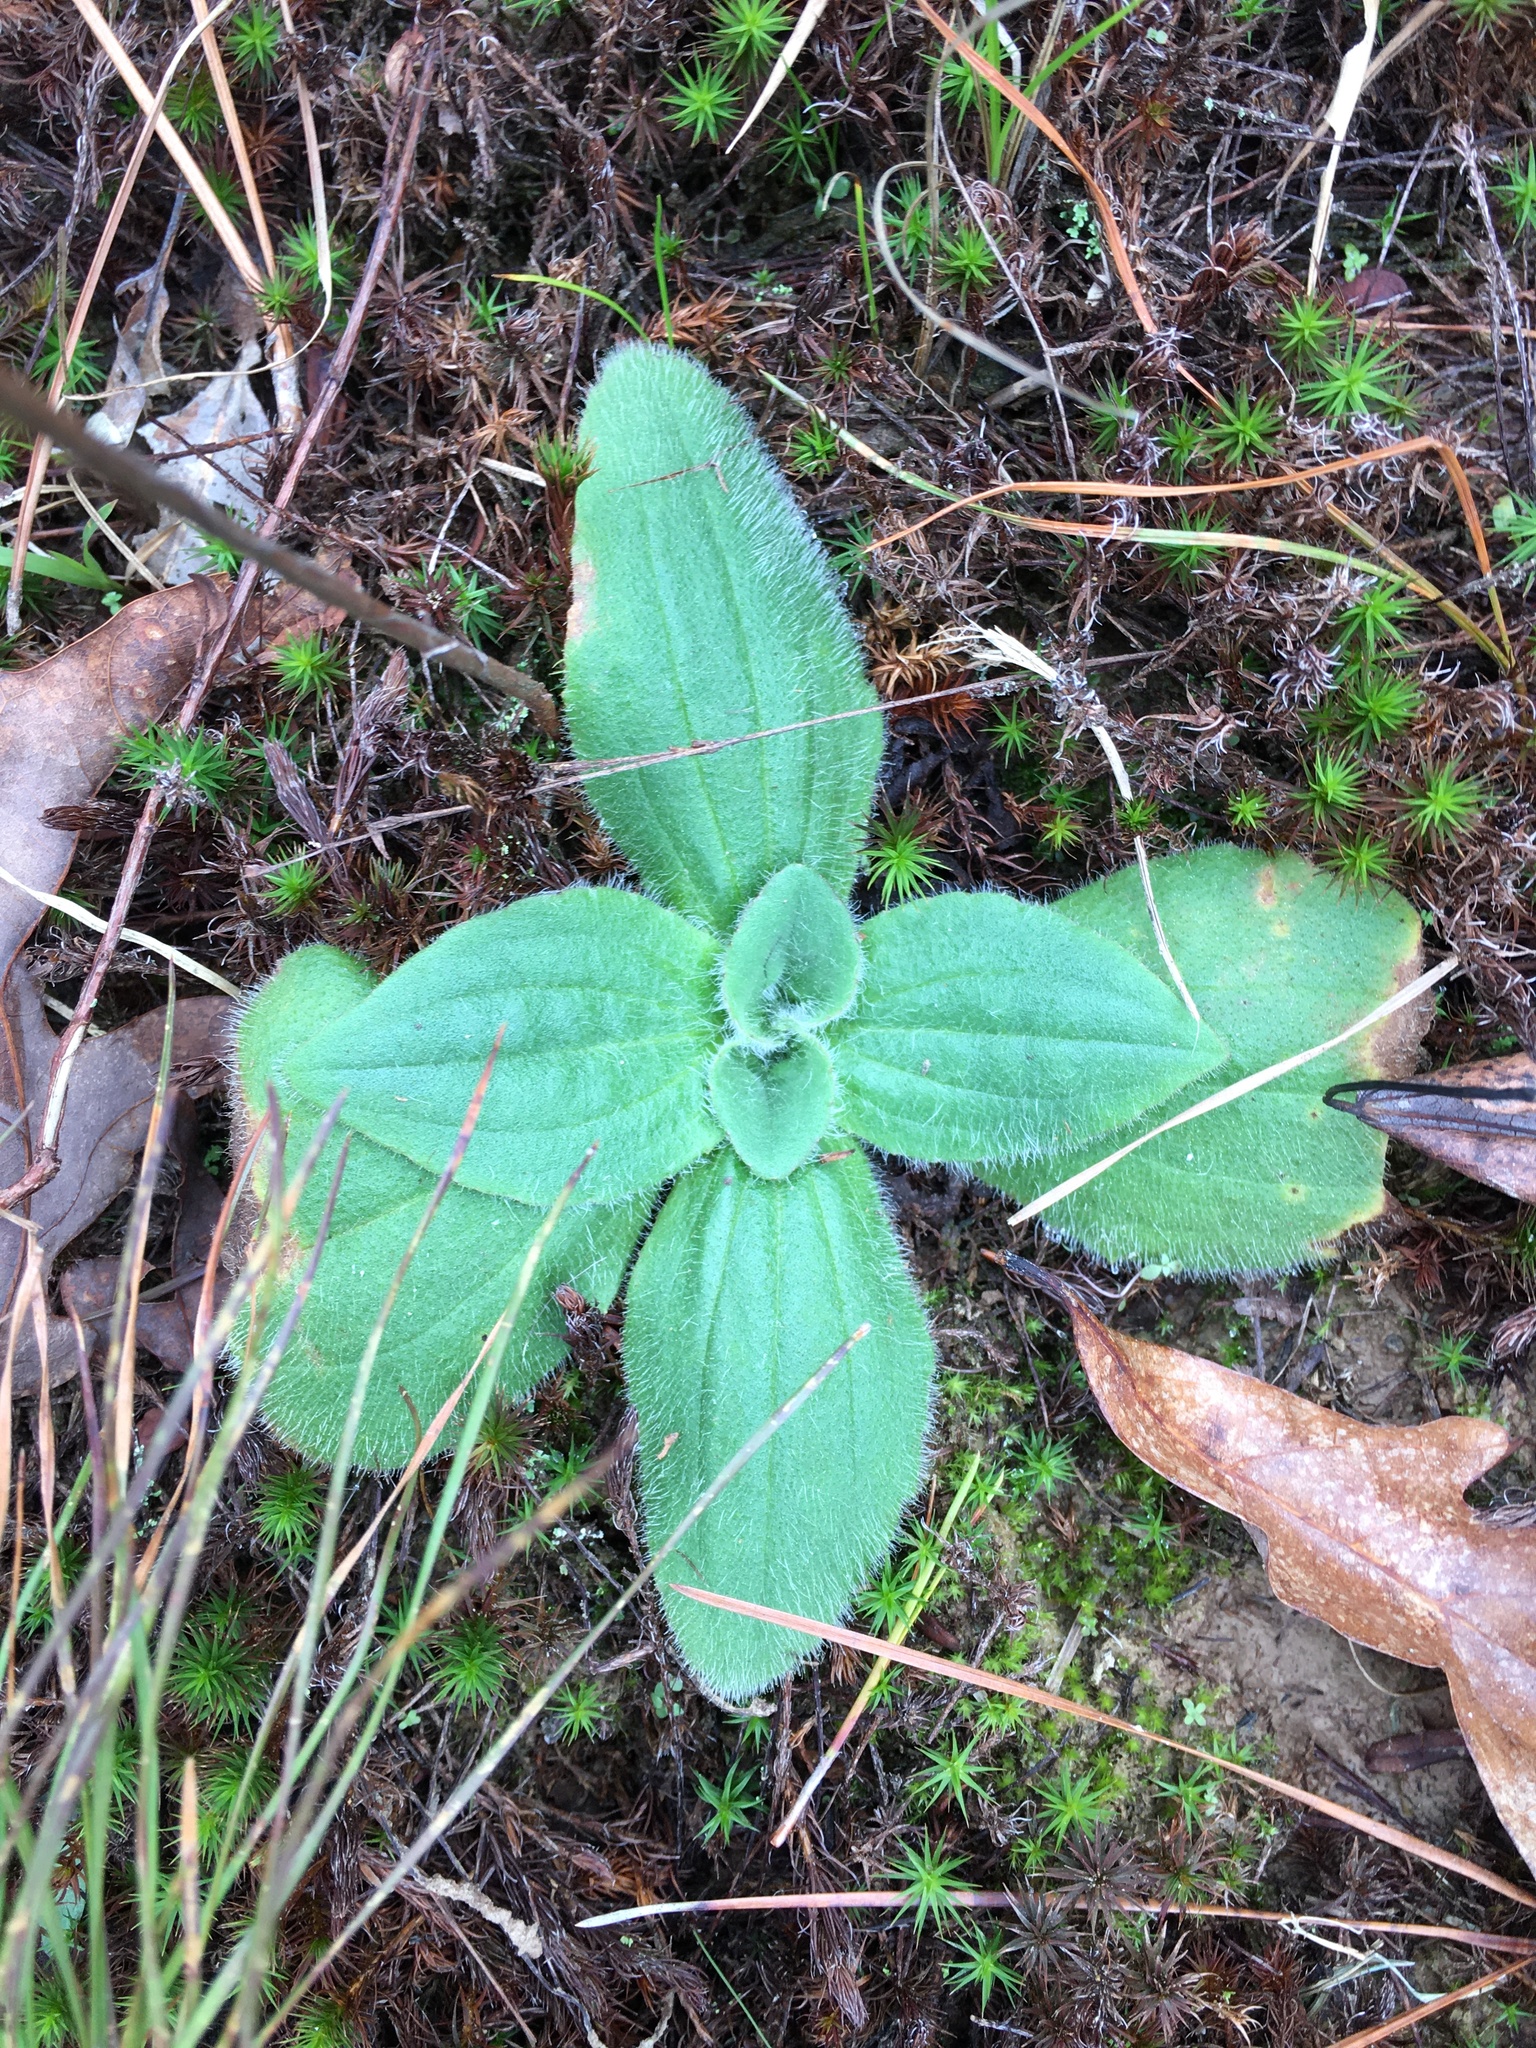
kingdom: Plantae
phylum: Tracheophyta
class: Magnoliopsida
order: Asterales
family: Asteraceae
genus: Arnica
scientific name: Arnica acaulis
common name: Common leopardbane
